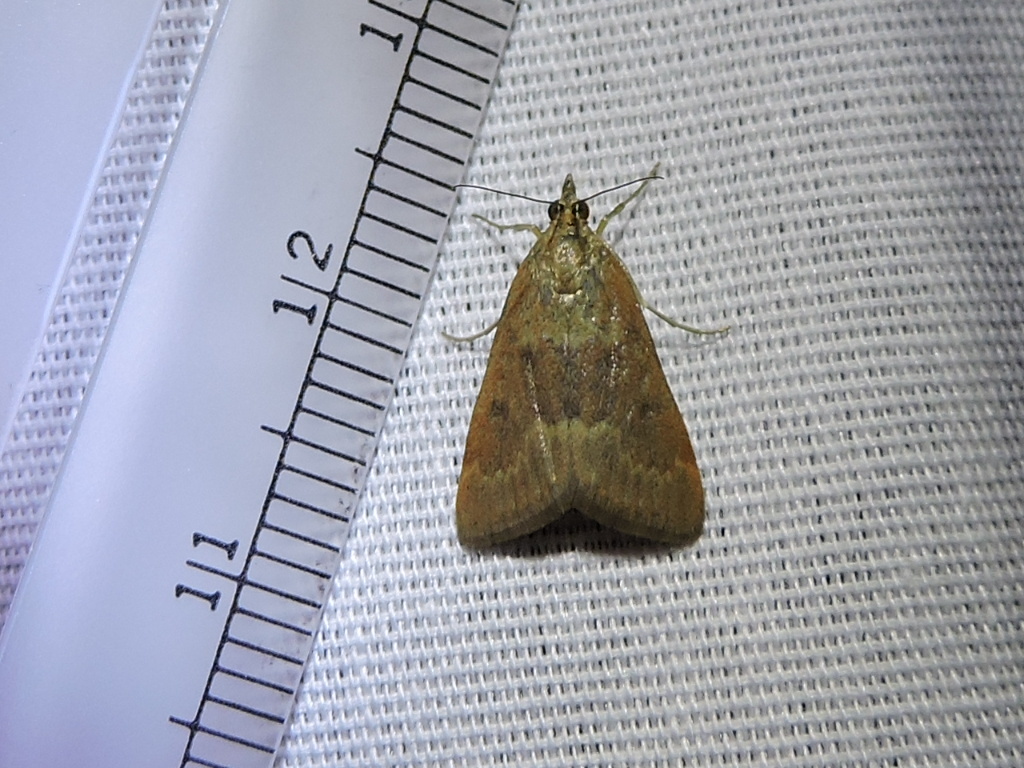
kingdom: Animalia
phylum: Arthropoda
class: Insecta
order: Lepidoptera
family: Crambidae
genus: Achyra
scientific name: Achyra rantalis
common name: Garden webworm
